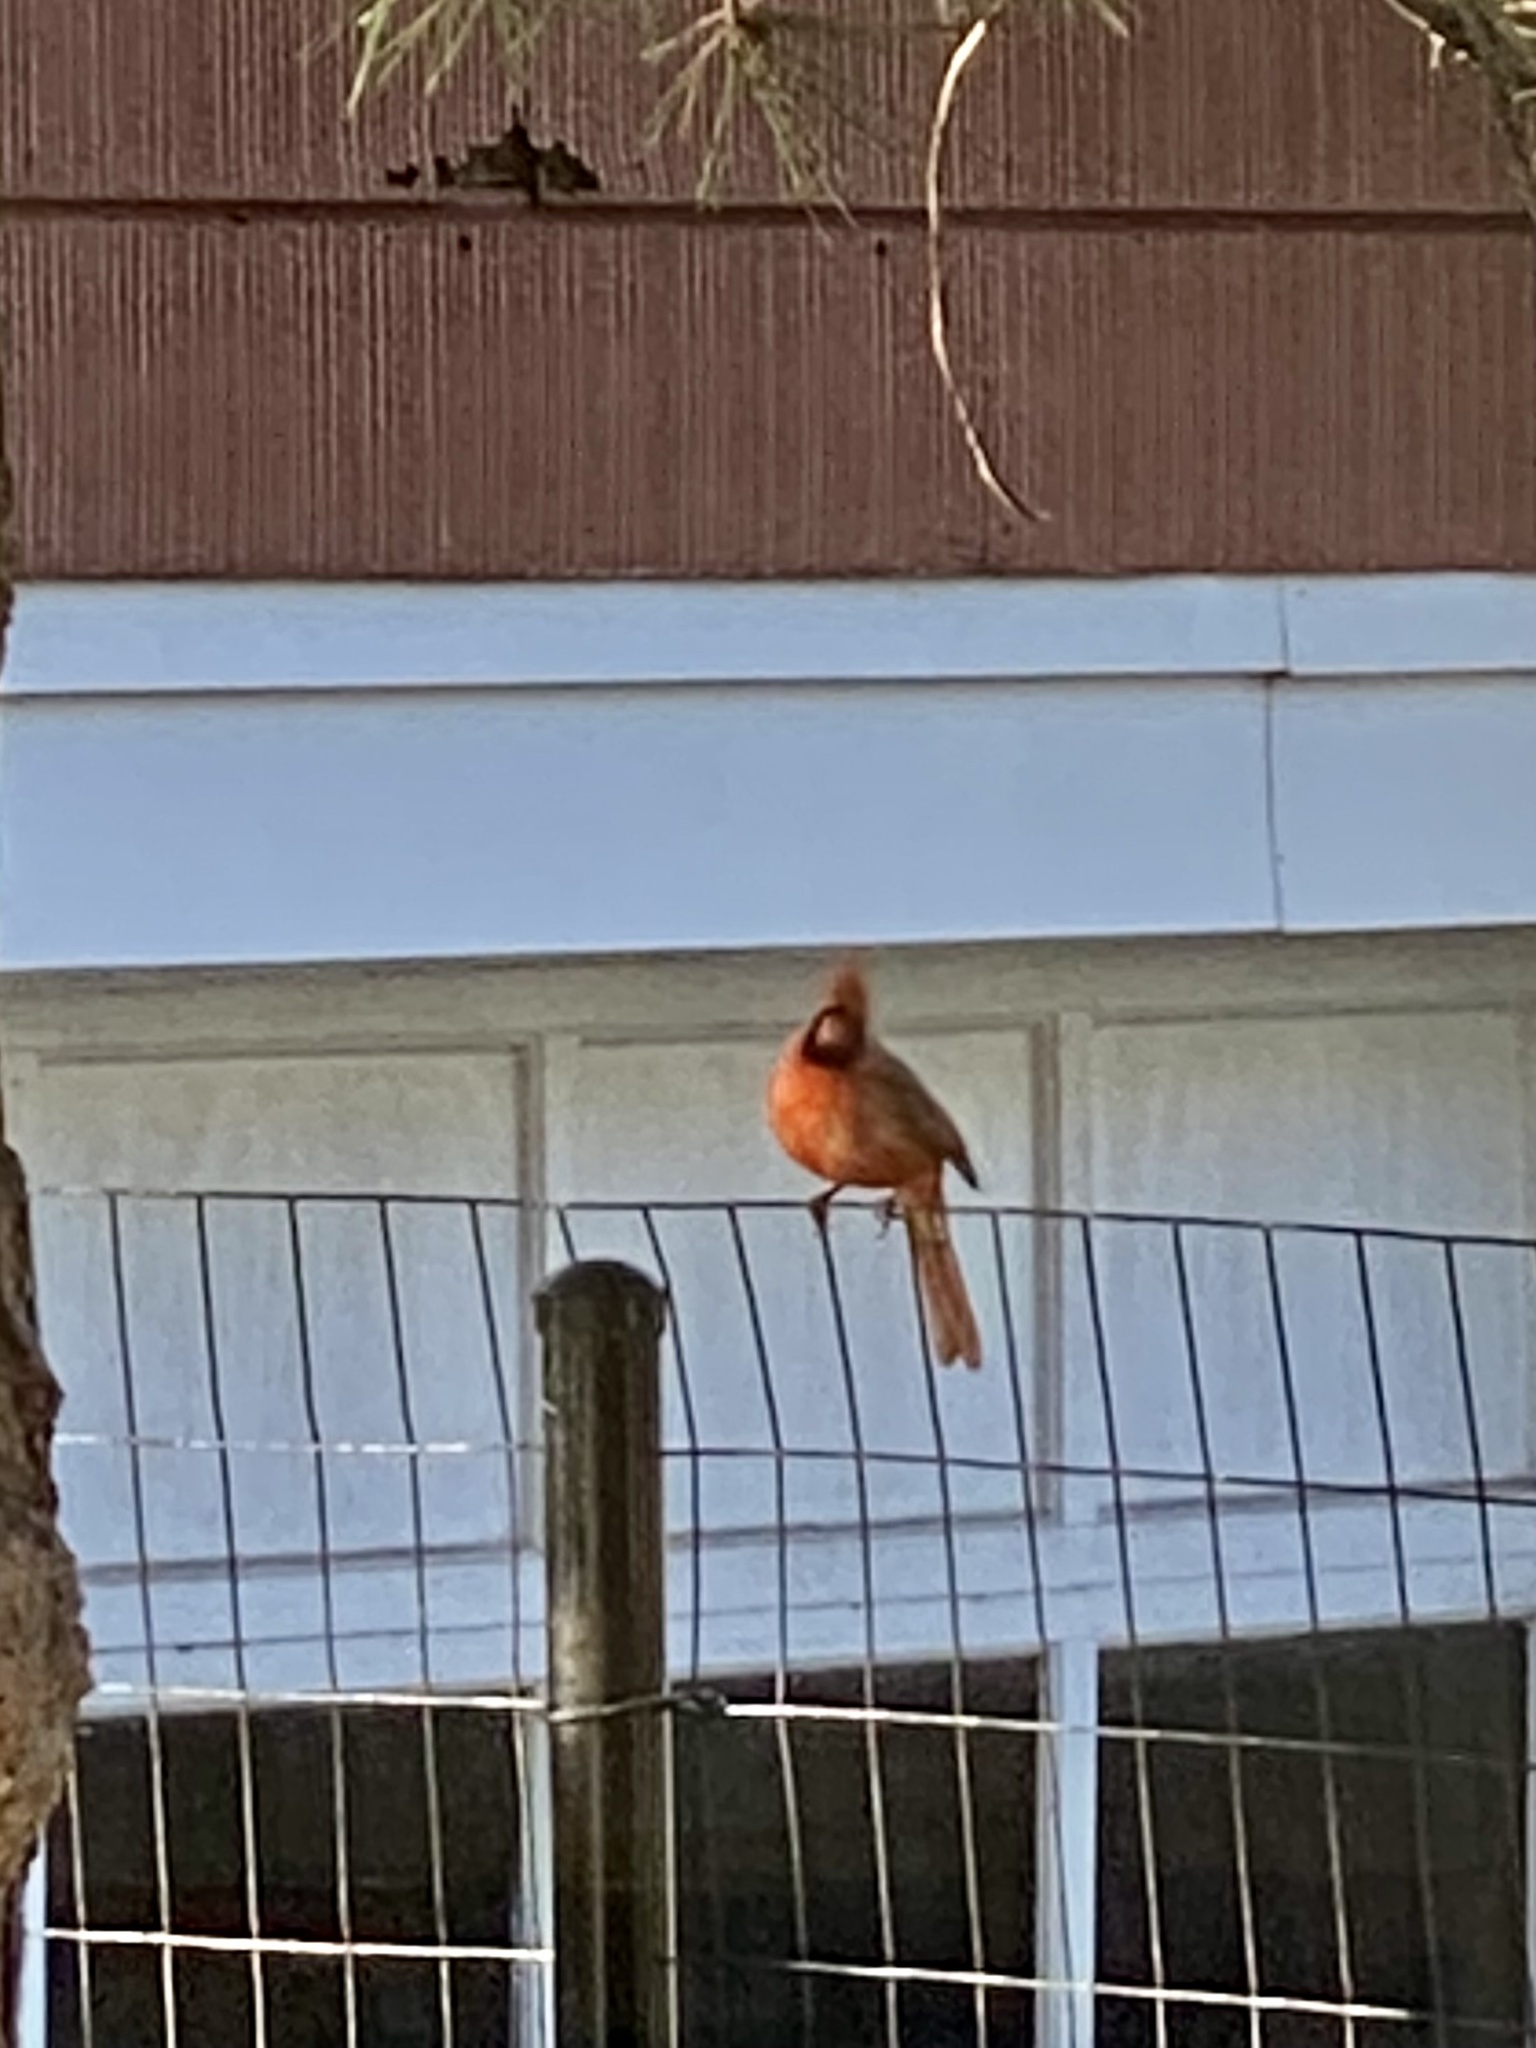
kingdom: Animalia
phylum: Chordata
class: Aves
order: Passeriformes
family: Cardinalidae
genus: Cardinalis
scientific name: Cardinalis cardinalis
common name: Northern cardinal
